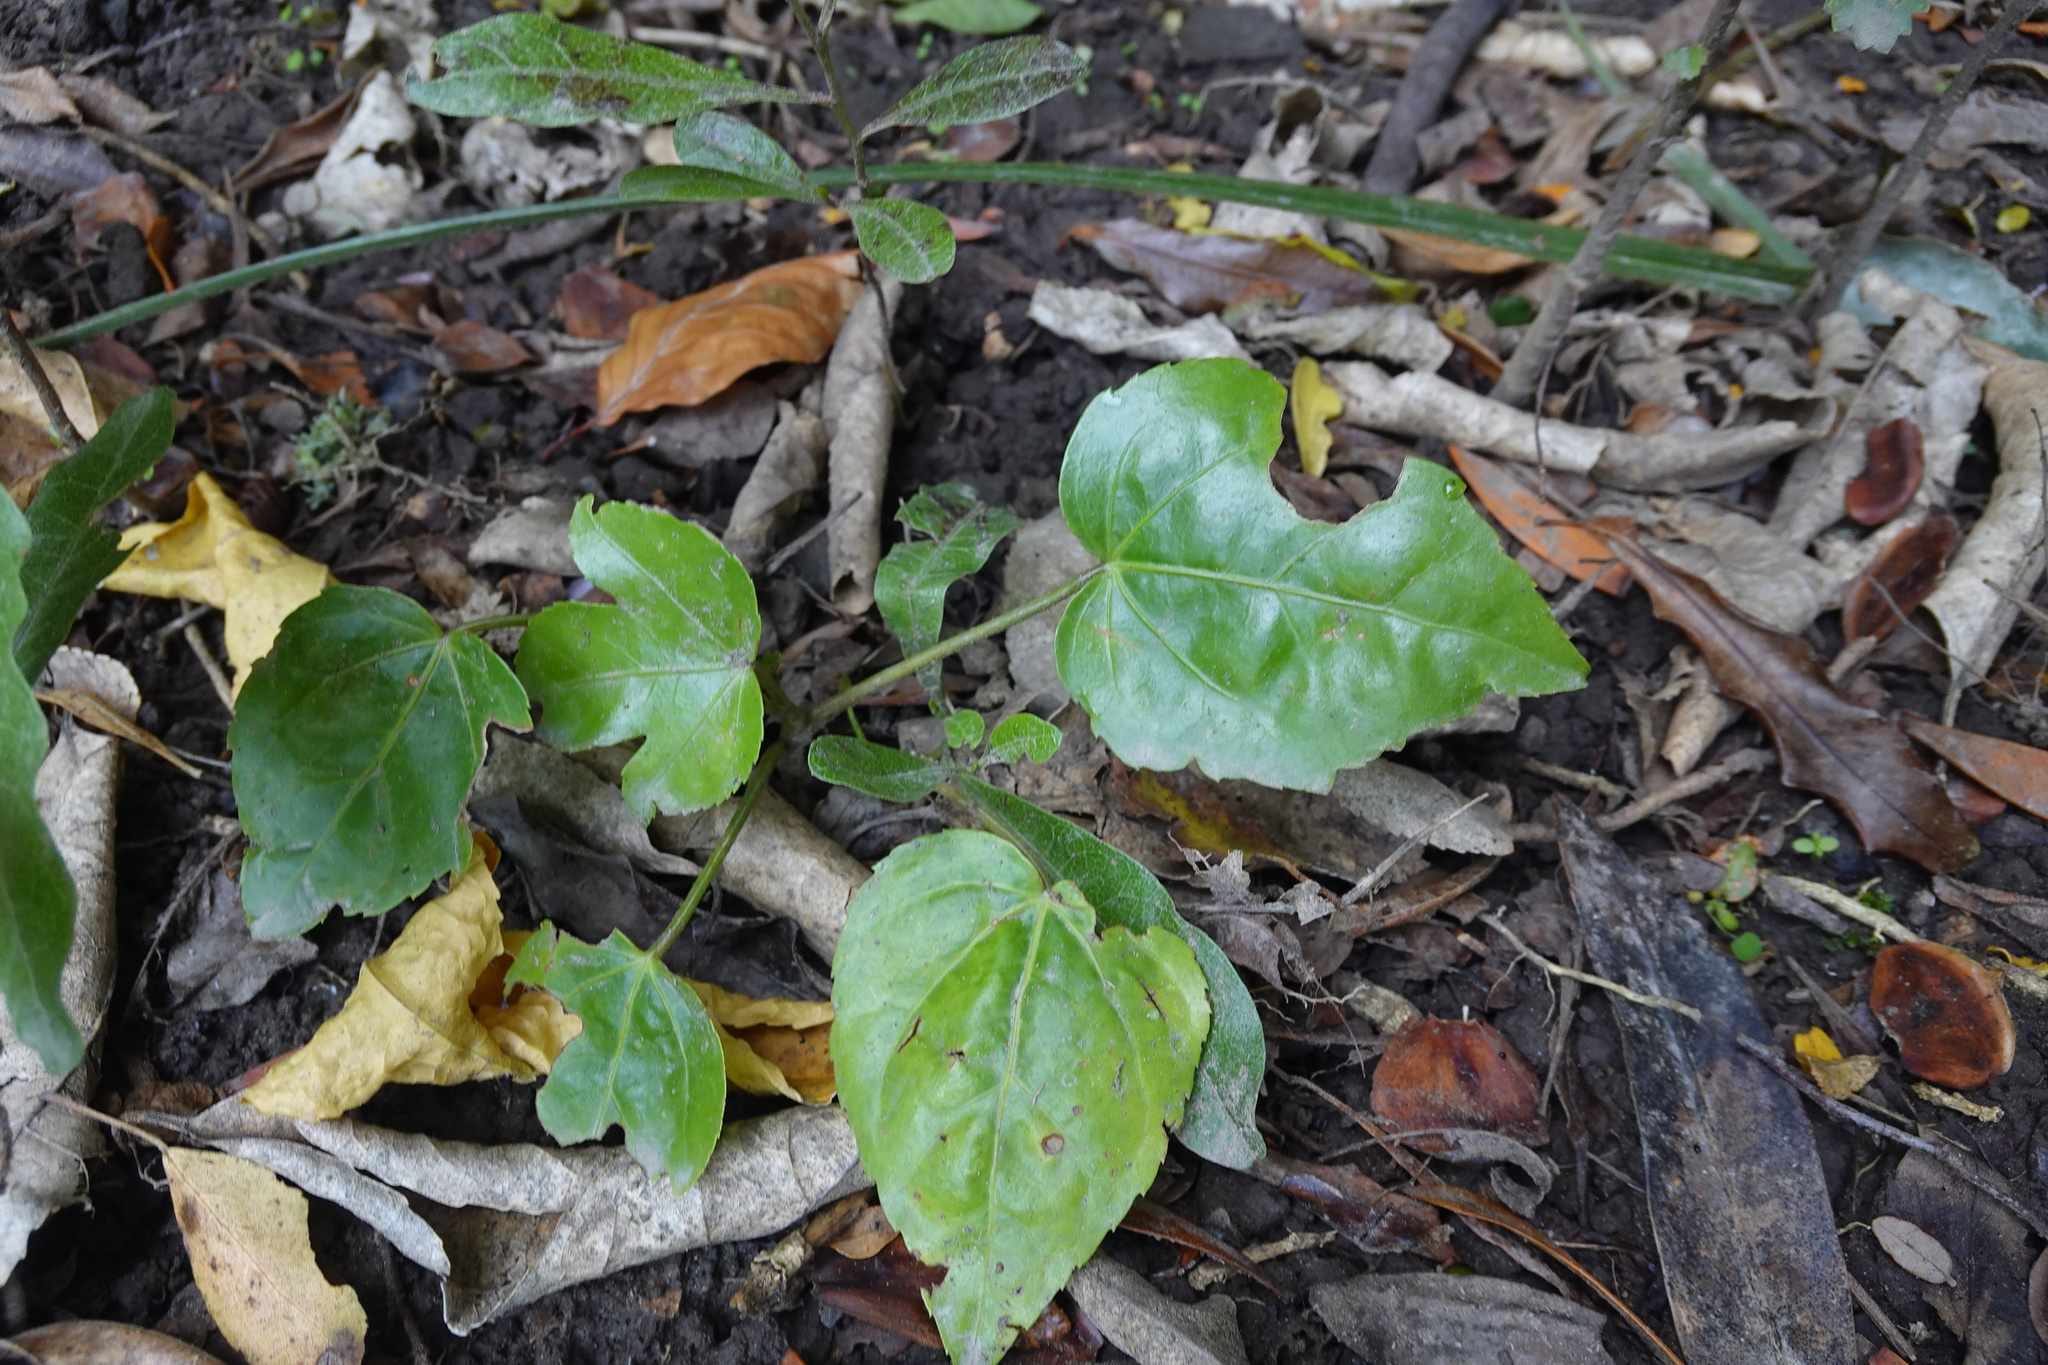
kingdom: Plantae
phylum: Tracheophyta
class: Magnoliopsida
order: Apiales
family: Araliaceae
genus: Fatsia
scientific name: Fatsia japonica
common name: Fatsia
